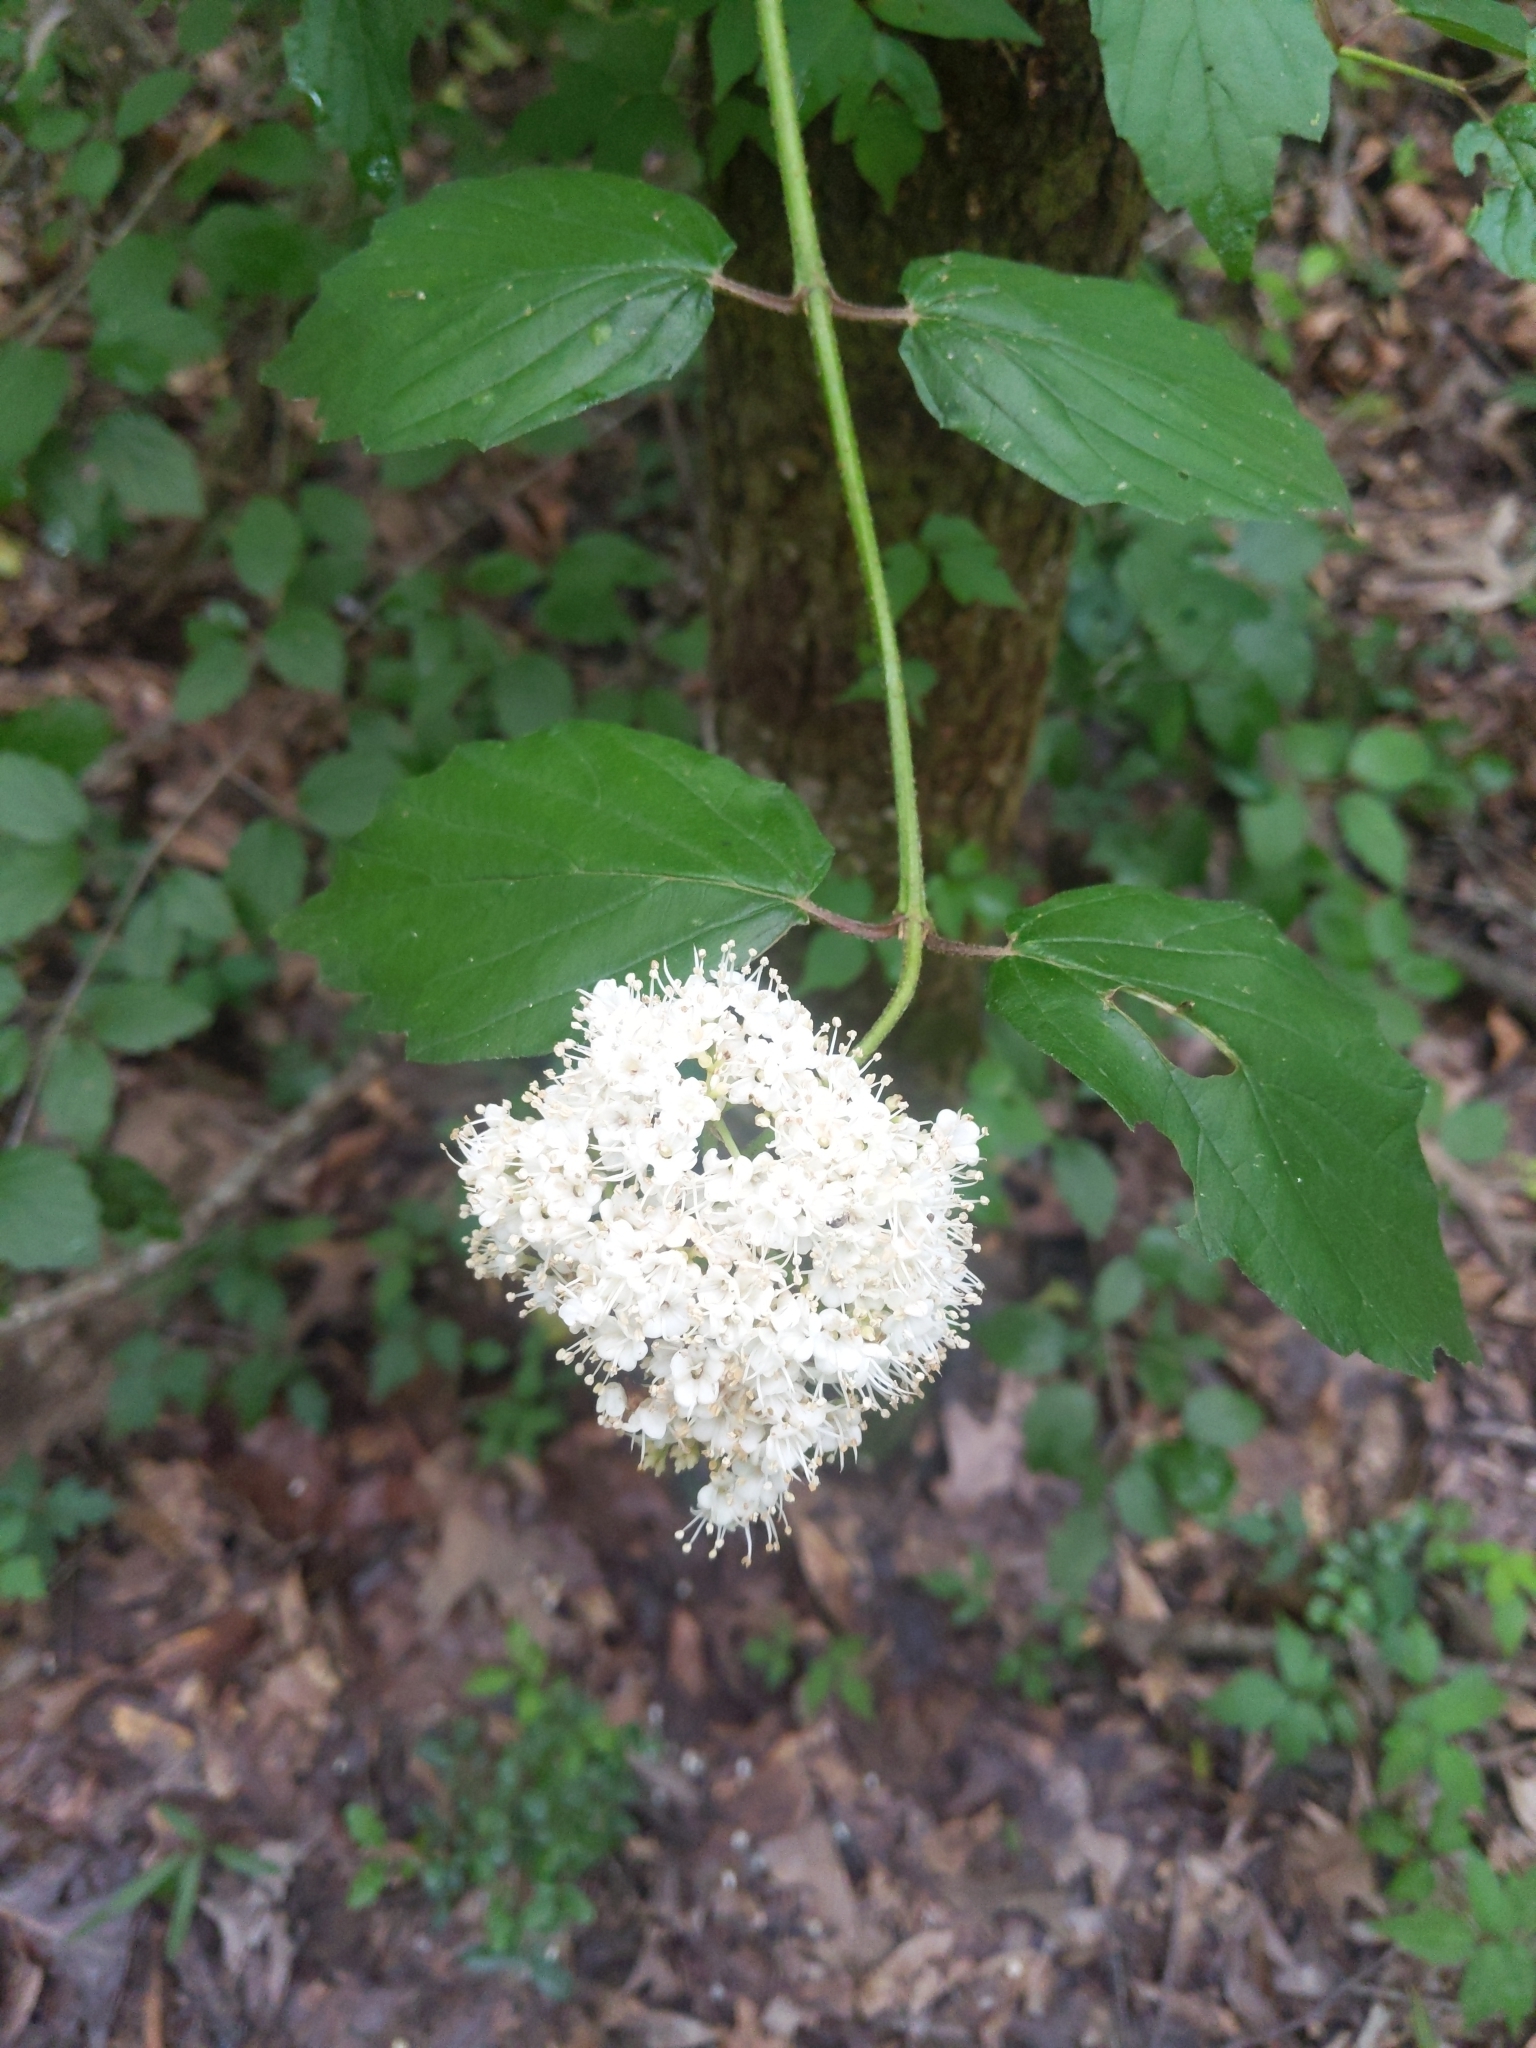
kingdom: Plantae
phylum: Tracheophyta
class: Magnoliopsida
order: Dipsacales
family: Viburnaceae
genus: Viburnum
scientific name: Viburnum scabrellum
